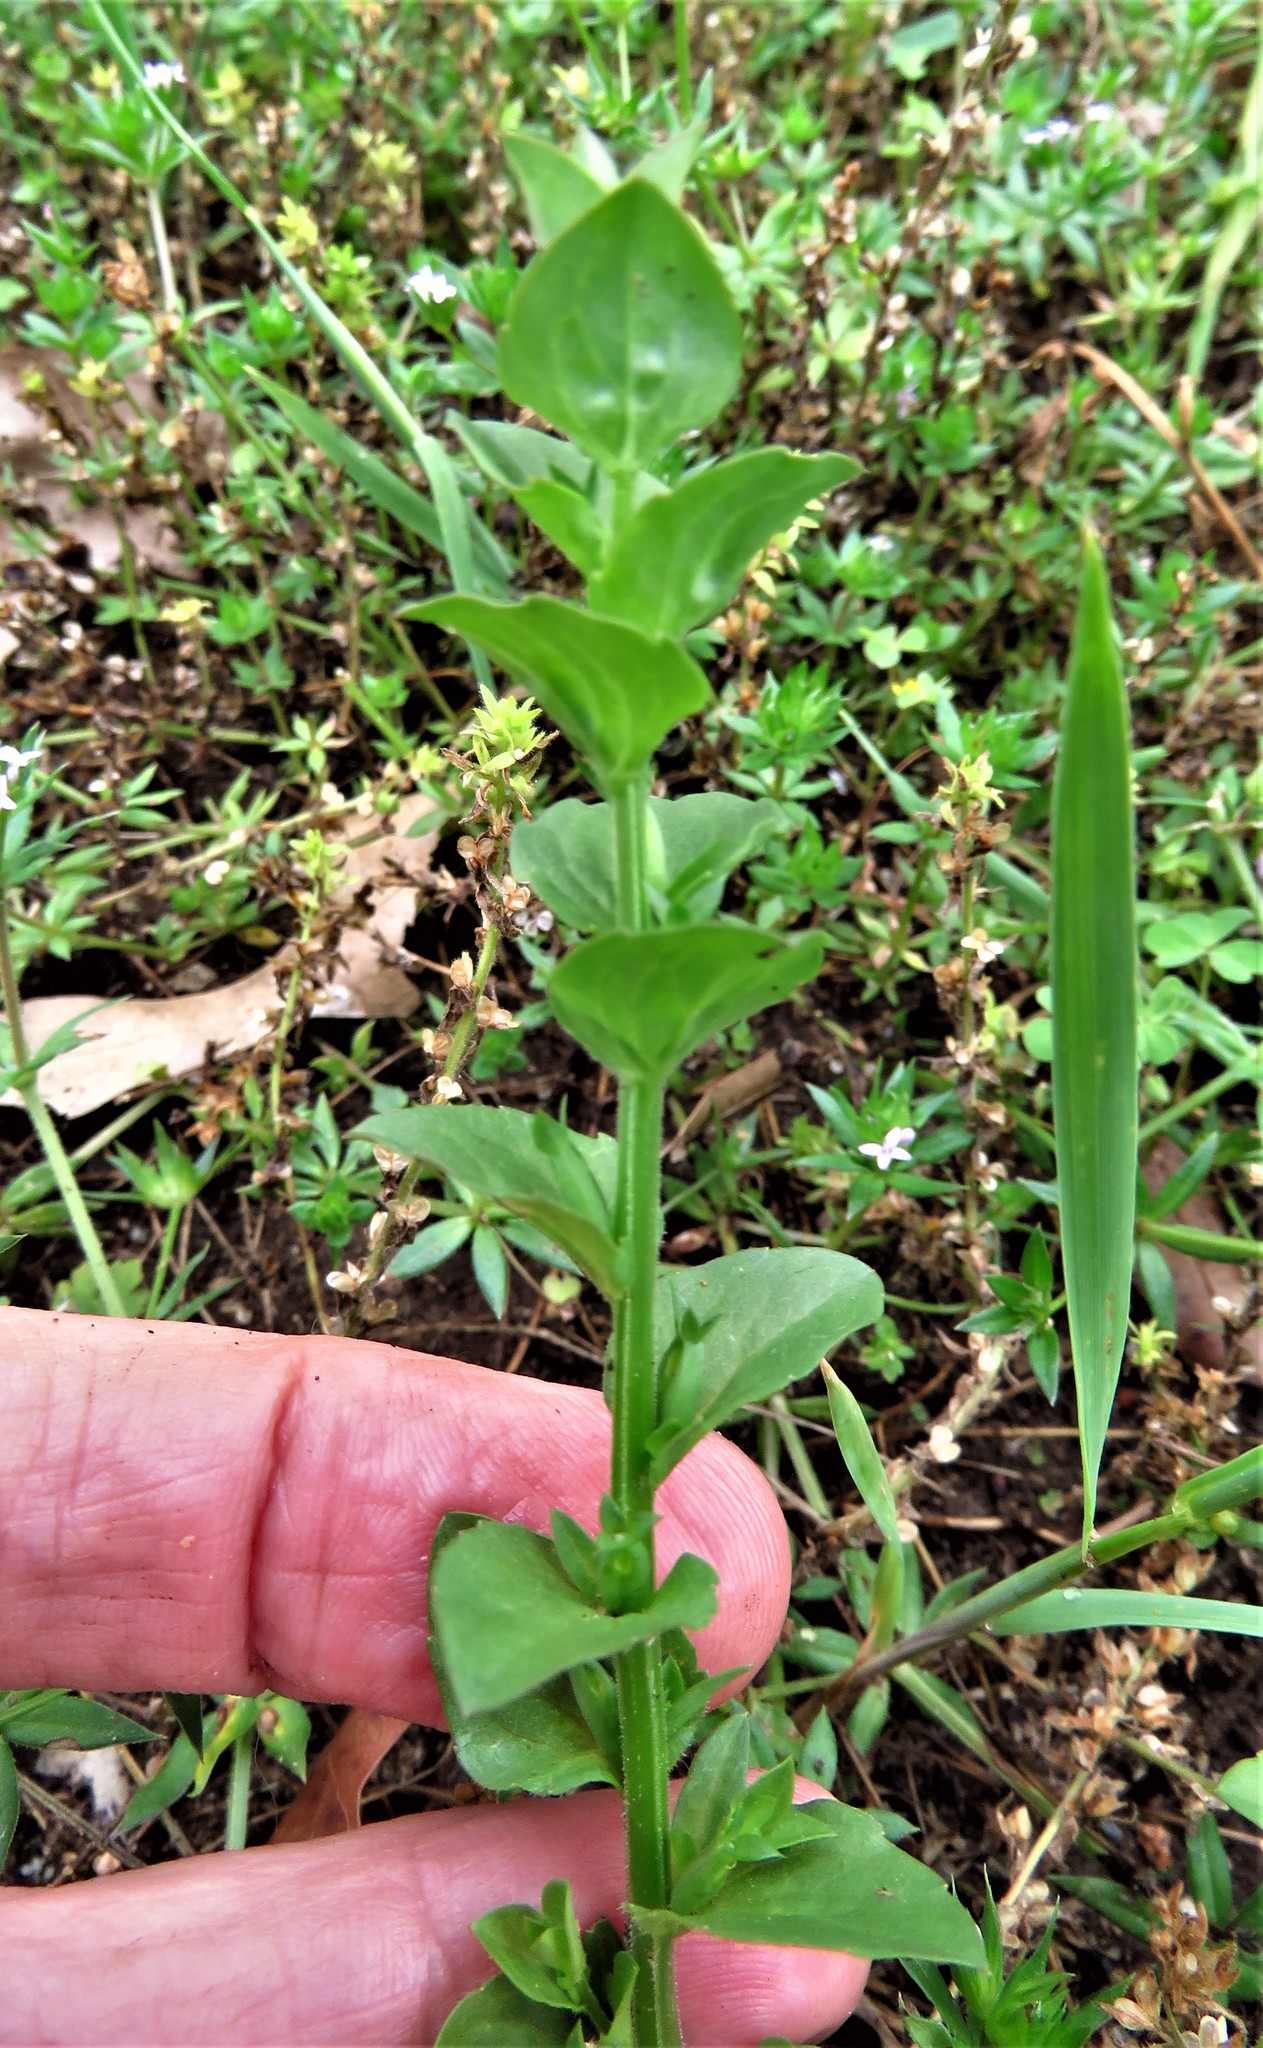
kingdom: Plantae
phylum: Tracheophyta
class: Magnoliopsida
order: Asterales
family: Campanulaceae
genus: Triodanis
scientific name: Triodanis biflora
